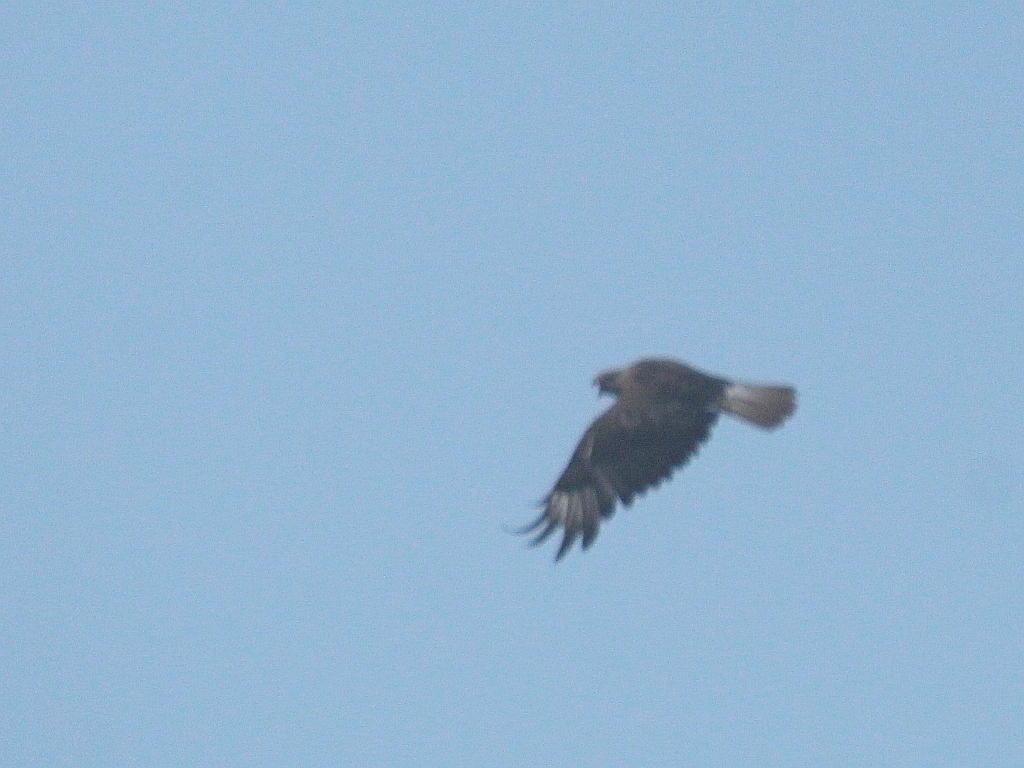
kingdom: Animalia
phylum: Chordata
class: Aves
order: Accipitriformes
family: Accipitridae
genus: Buteo
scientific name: Buteo rufinus
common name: Long-legged buzzard
